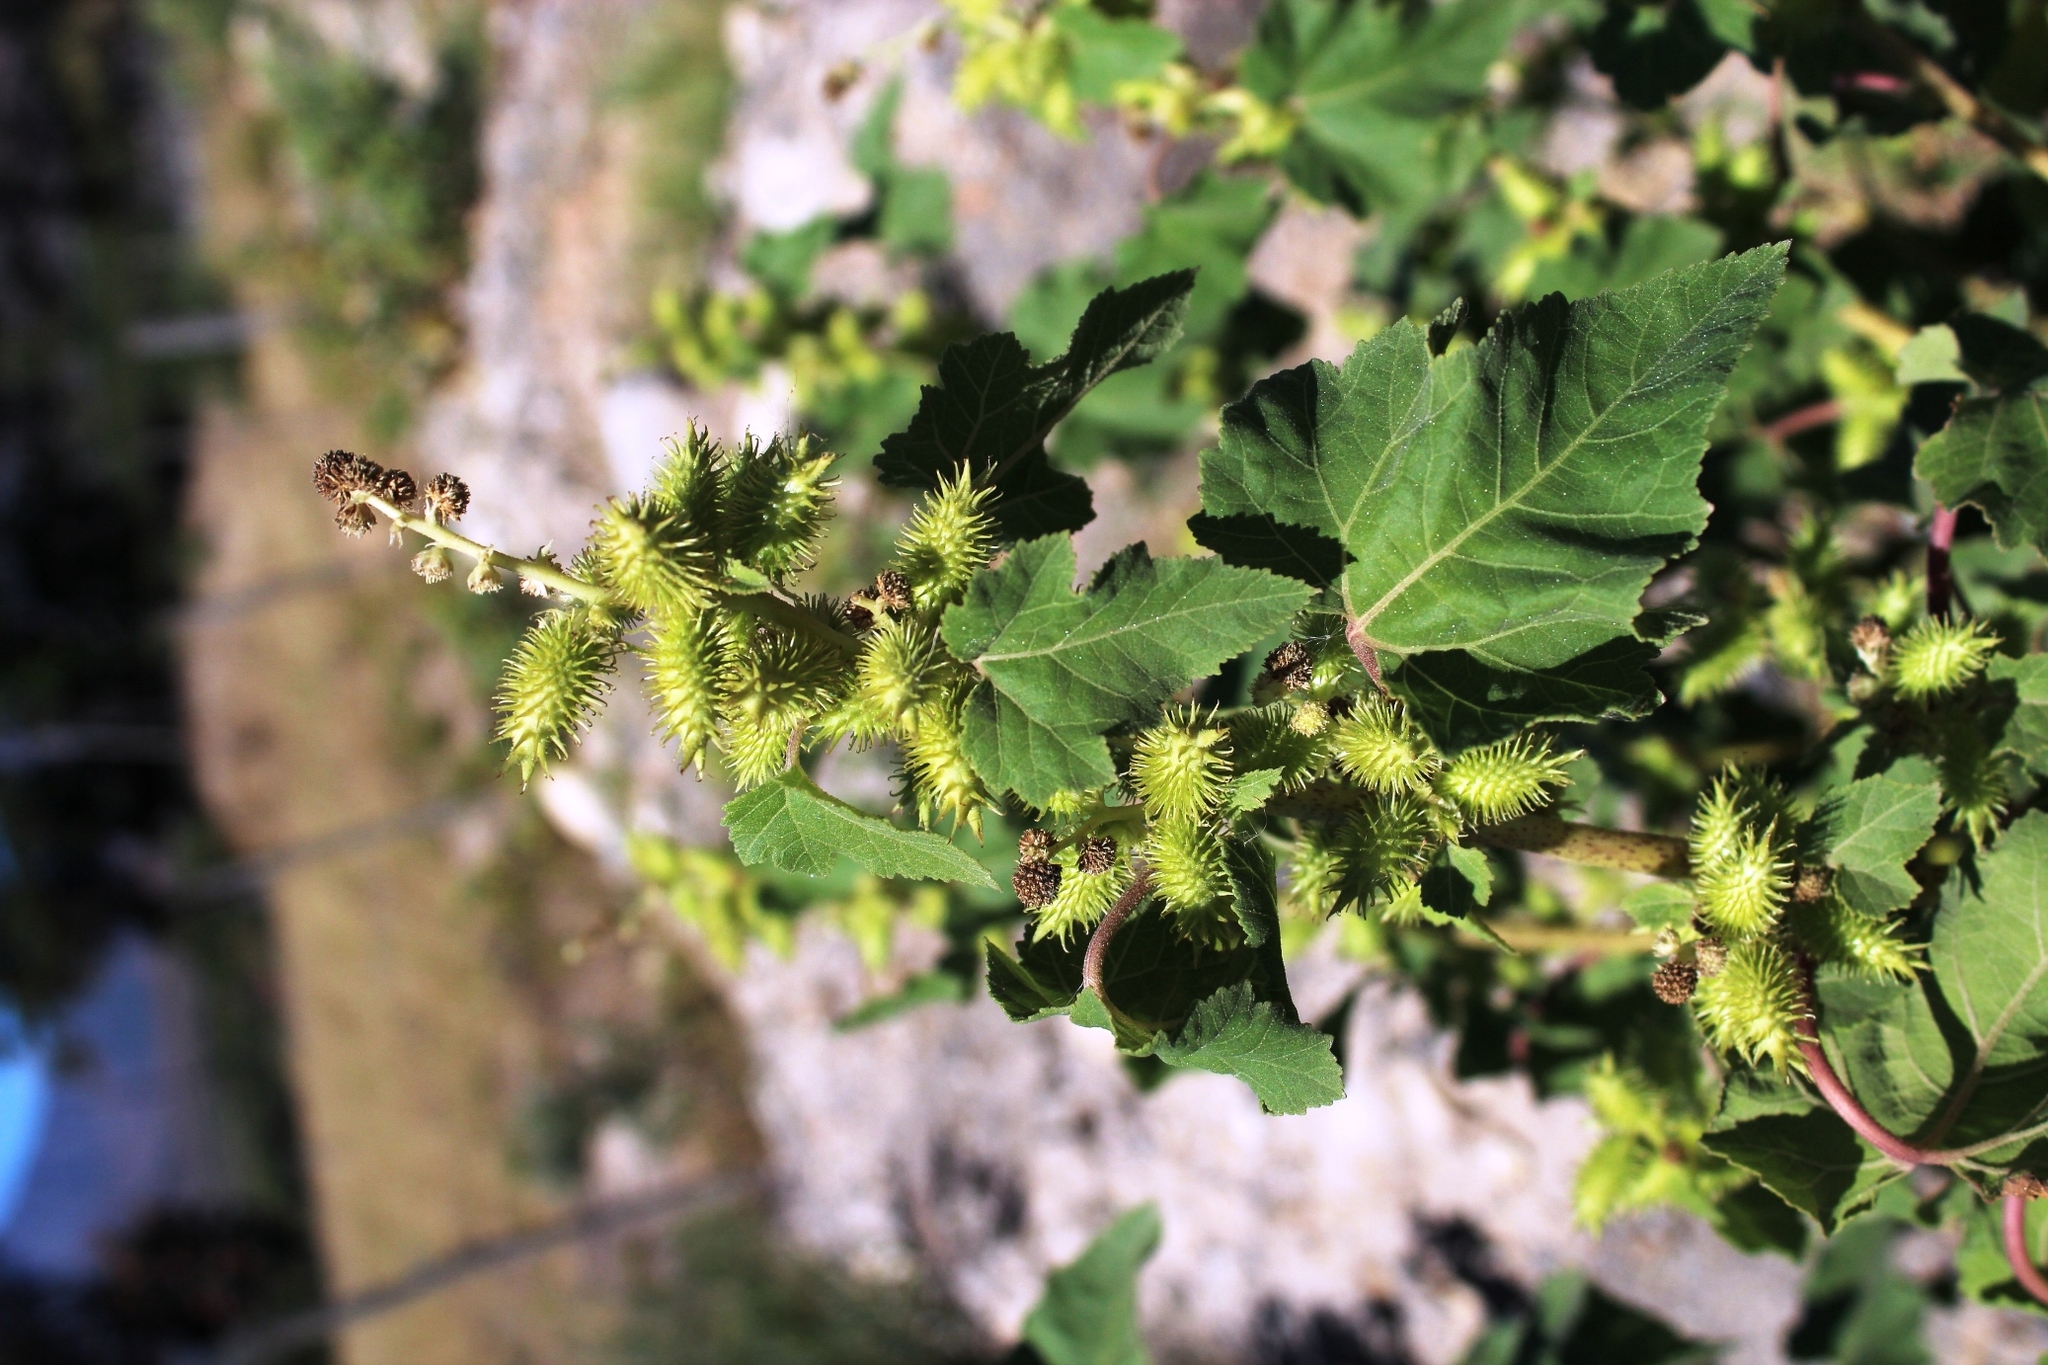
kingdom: Plantae
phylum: Tracheophyta
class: Magnoliopsida
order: Asterales
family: Asteraceae
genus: Xanthium
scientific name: Xanthium strumarium
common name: Rough cocklebur
